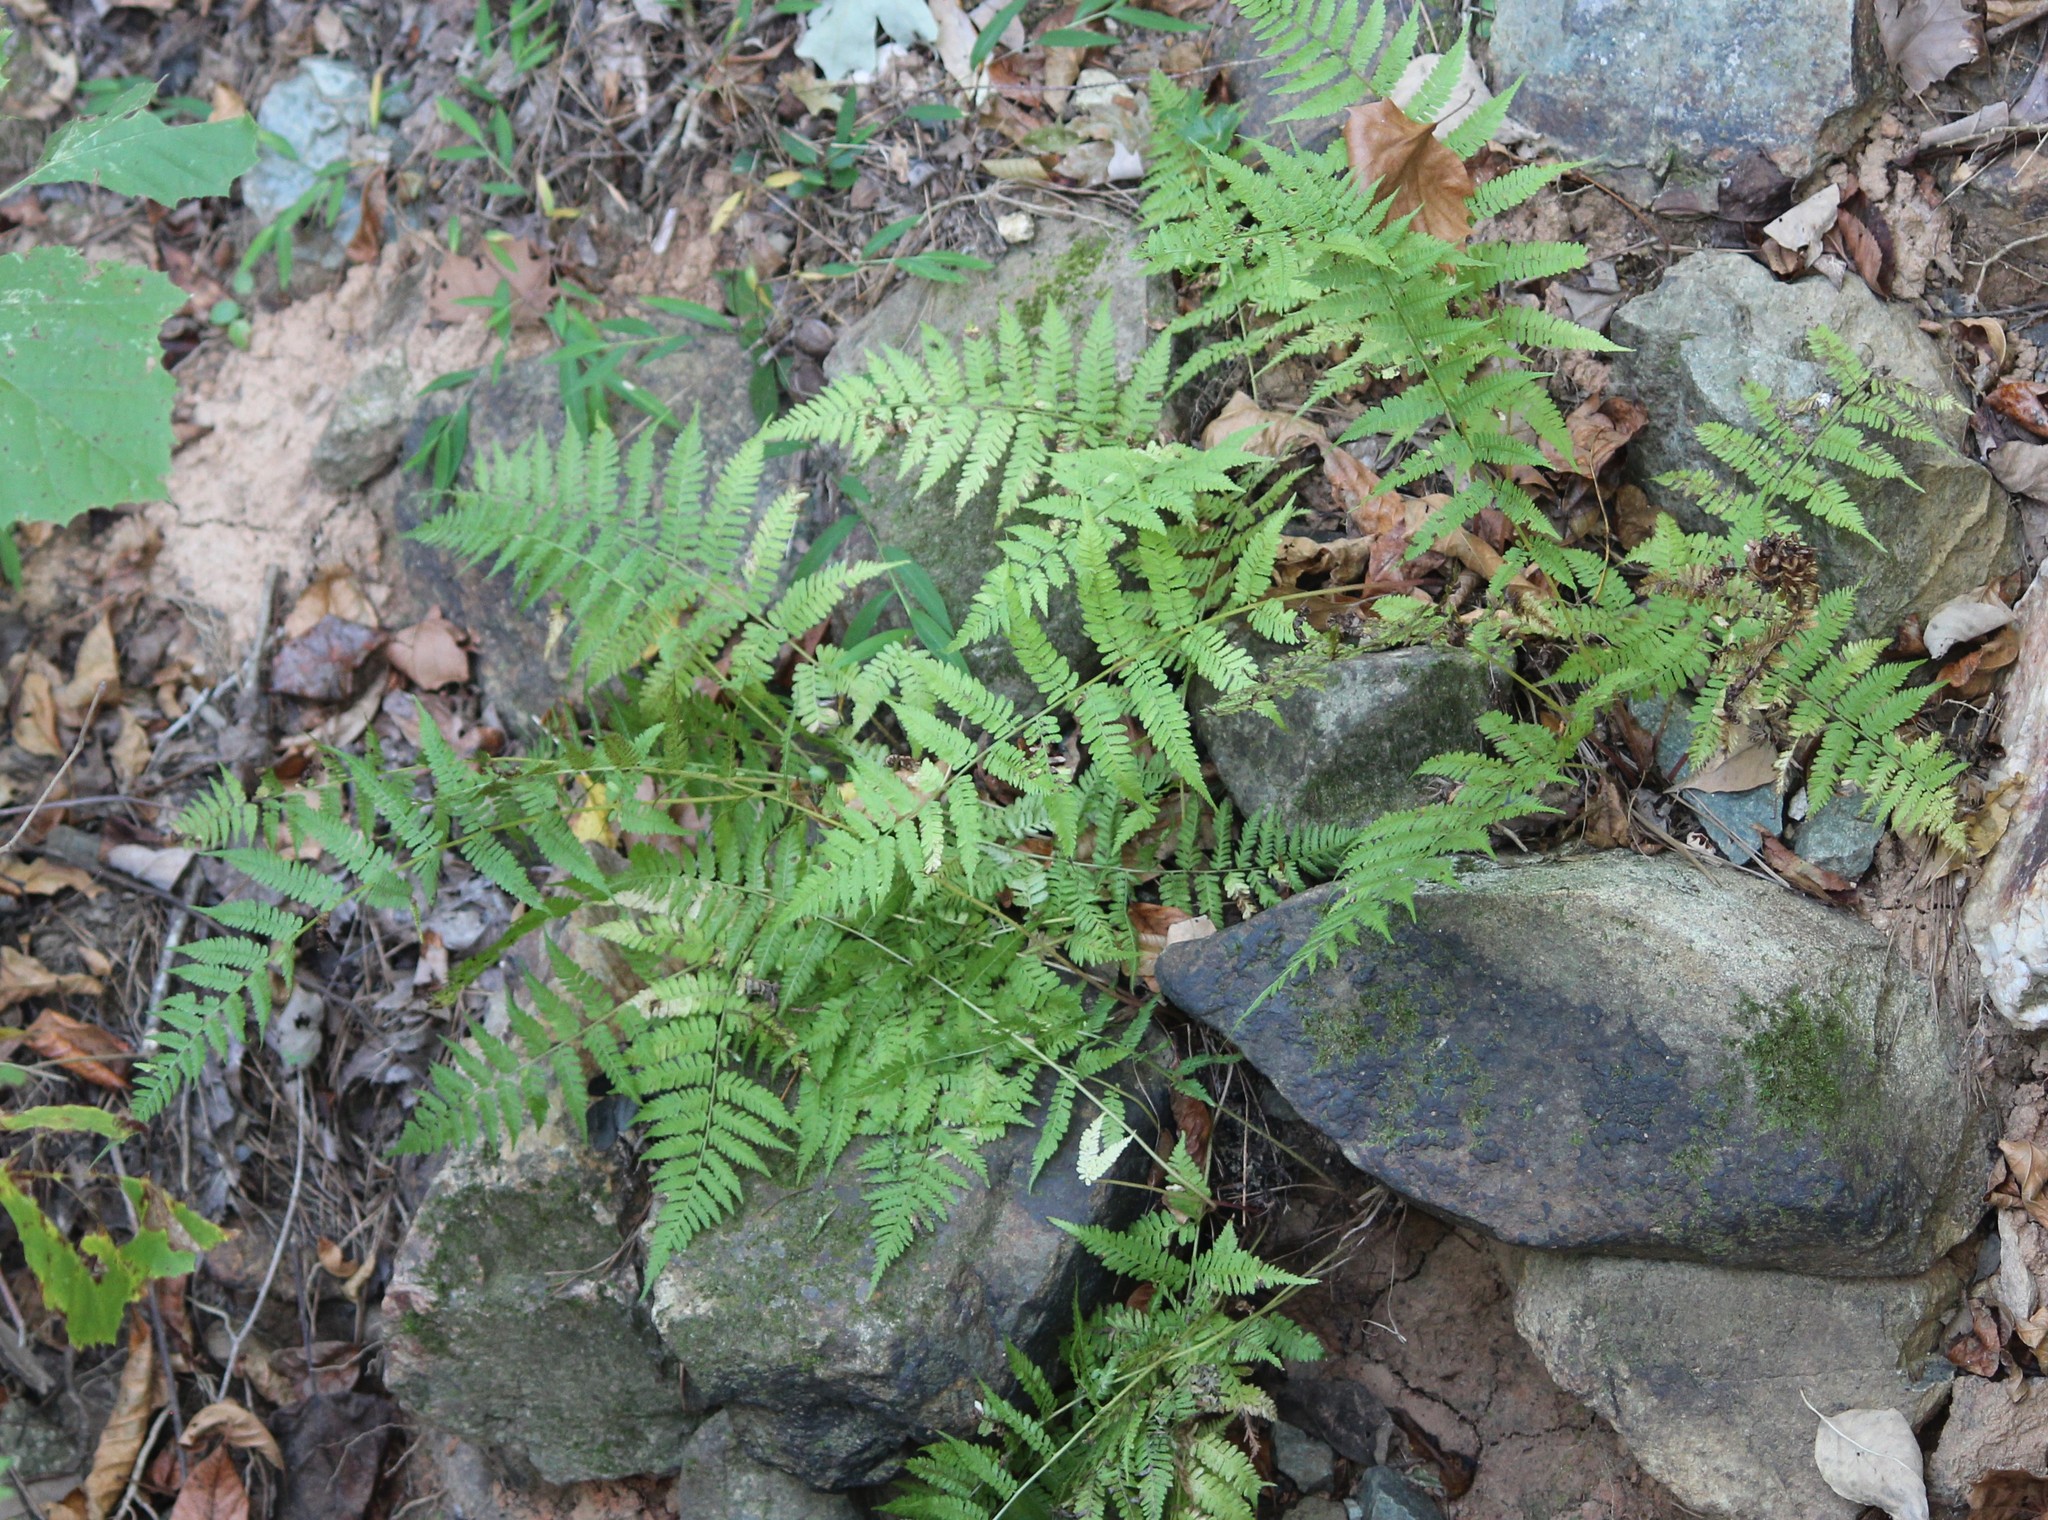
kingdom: Plantae
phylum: Tracheophyta
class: Polypodiopsida
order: Polypodiales
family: Athyriaceae
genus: Athyrium
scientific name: Athyrium asplenioides
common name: Southern lady fern
